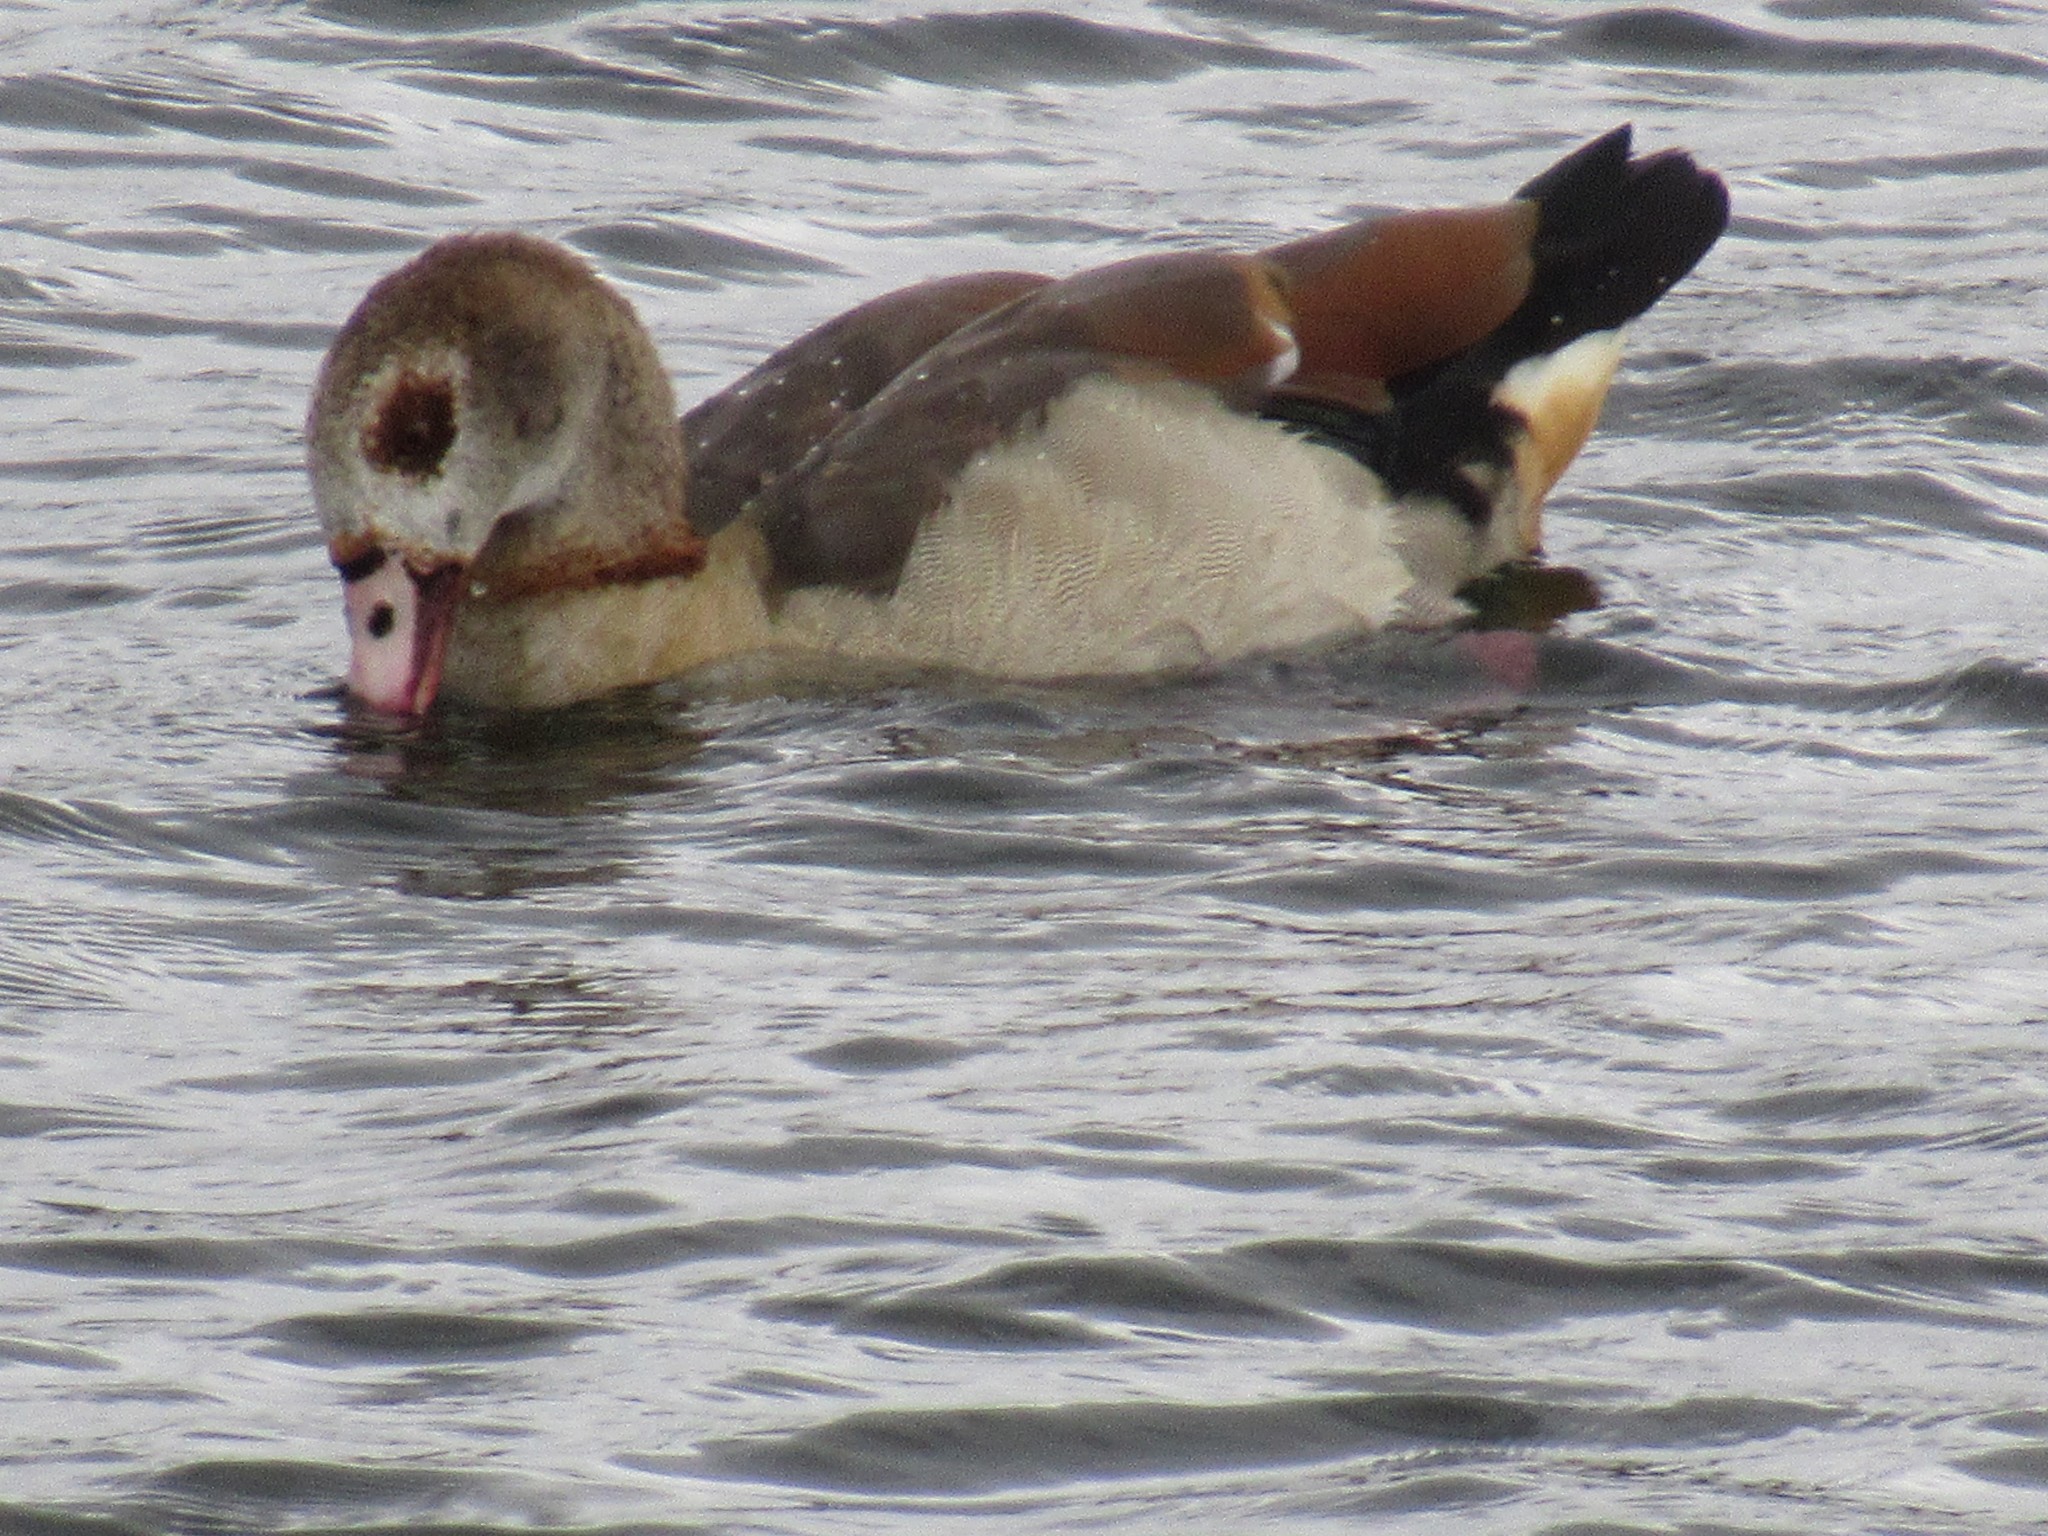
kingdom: Animalia
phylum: Chordata
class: Aves
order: Anseriformes
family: Anatidae
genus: Alopochen
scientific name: Alopochen aegyptiaca
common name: Egyptian goose
